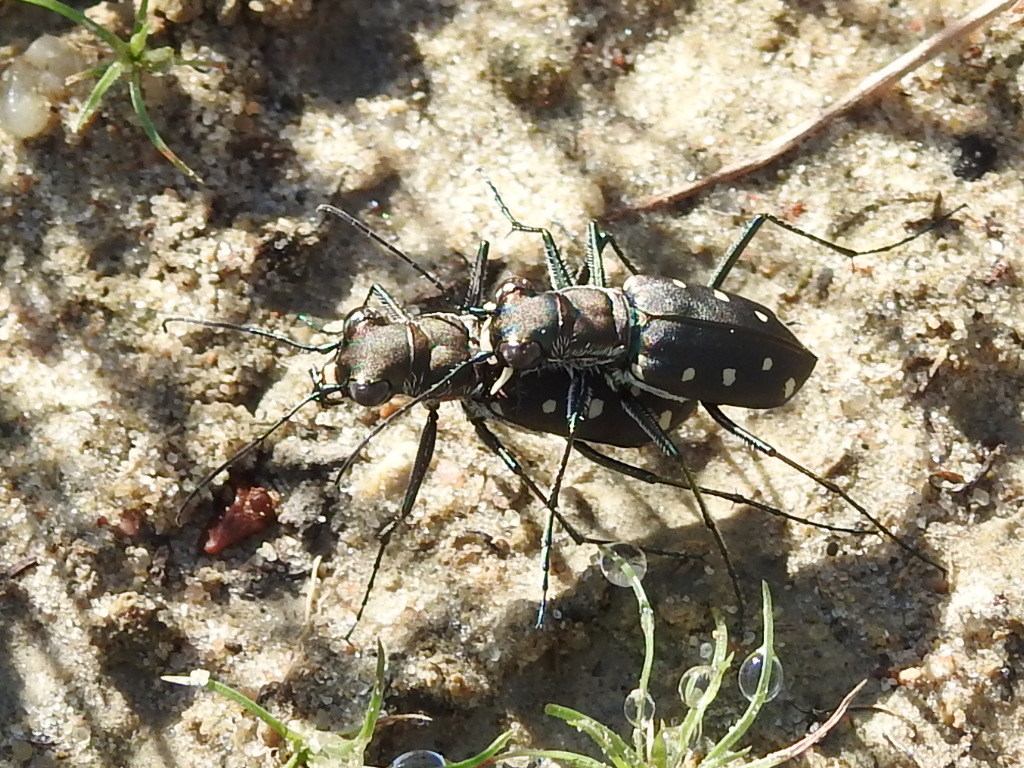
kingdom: Animalia
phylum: Arthropoda
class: Insecta
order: Coleoptera
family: Carabidae
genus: Cicindela
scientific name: Cicindela ocellata
